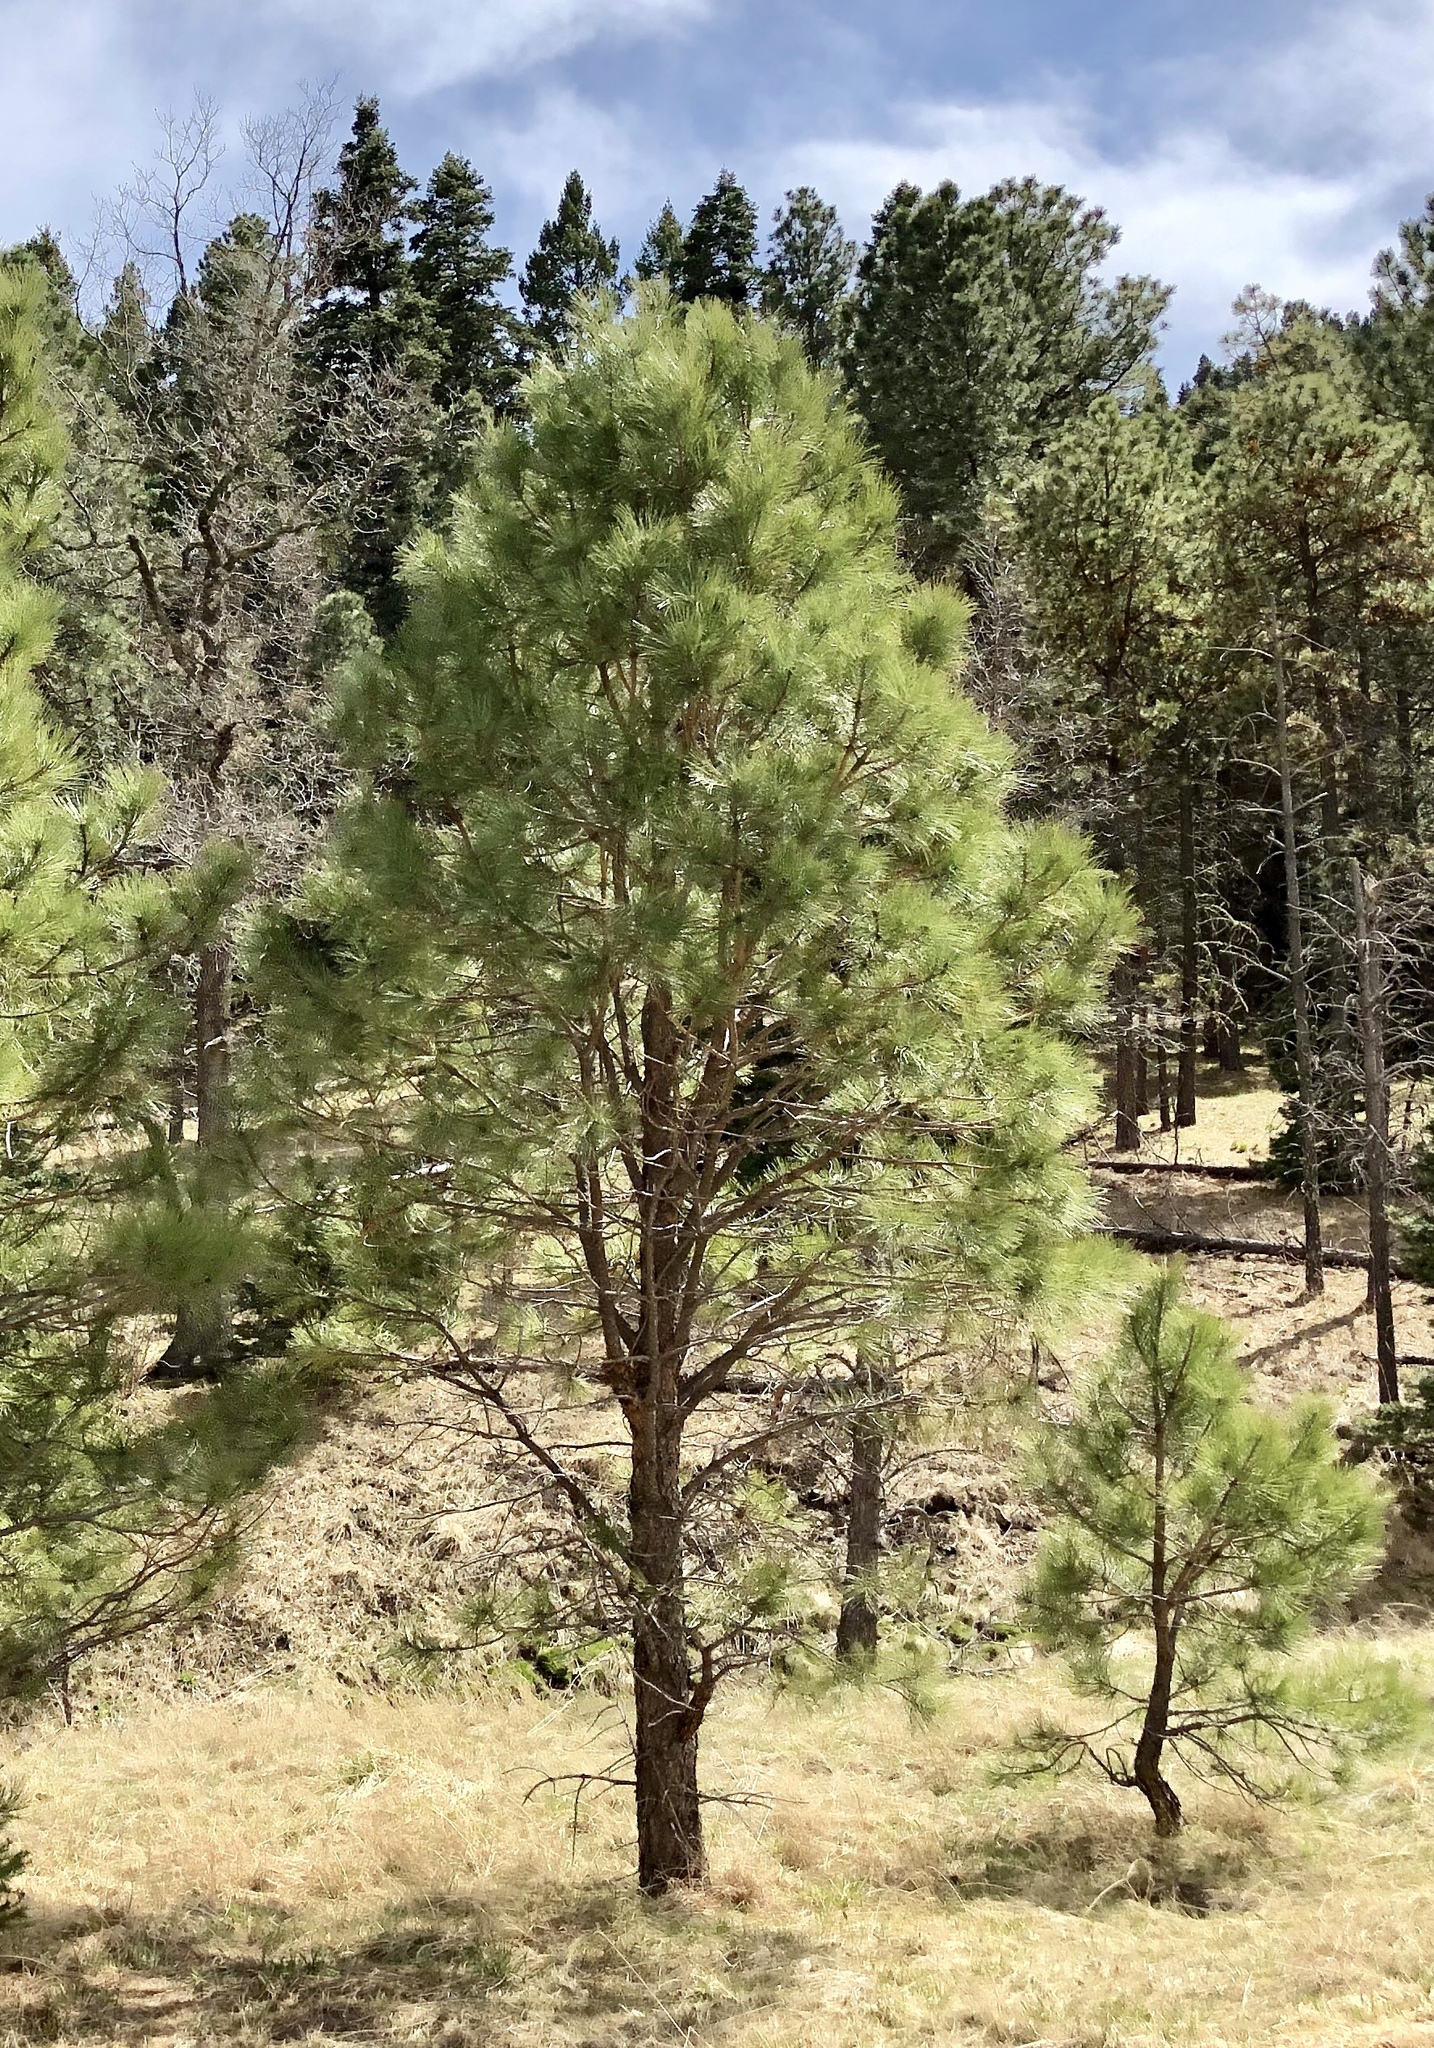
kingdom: Plantae
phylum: Tracheophyta
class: Pinopsida
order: Pinales
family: Pinaceae
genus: Pinus
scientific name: Pinus ponderosa
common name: Western yellow-pine
